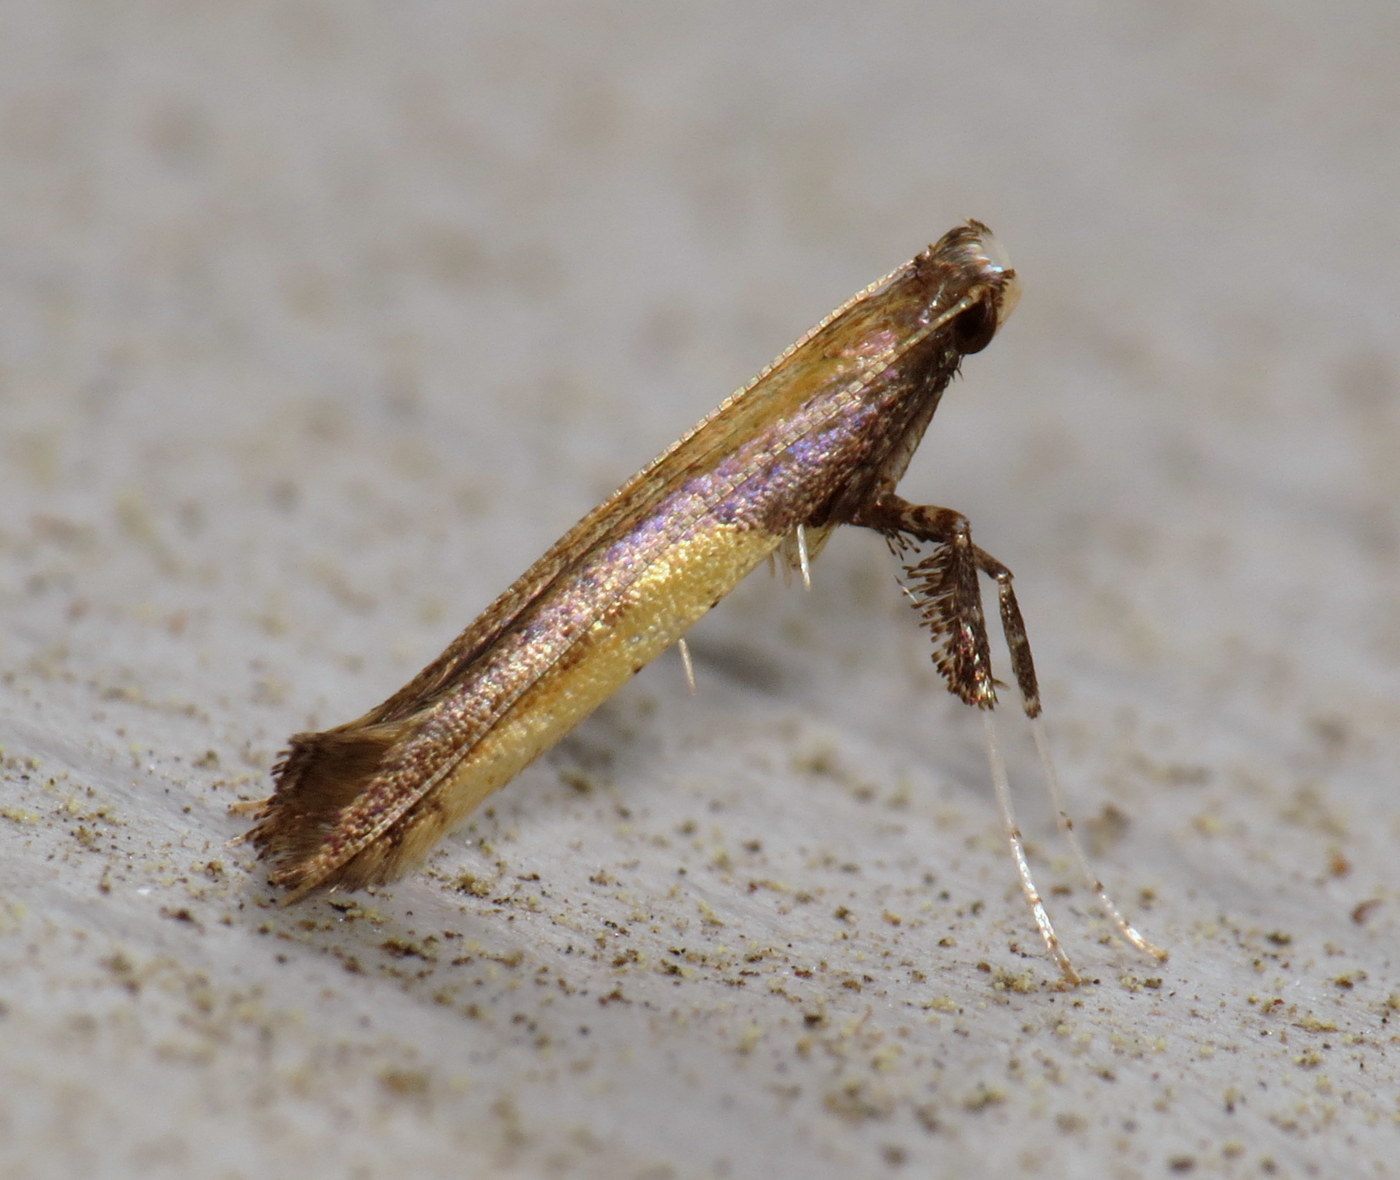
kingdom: Animalia
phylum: Arthropoda
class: Insecta
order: Lepidoptera
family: Gracillariidae
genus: Caloptilia
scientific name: Caloptilia azaleella
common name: Azalea leafminer
